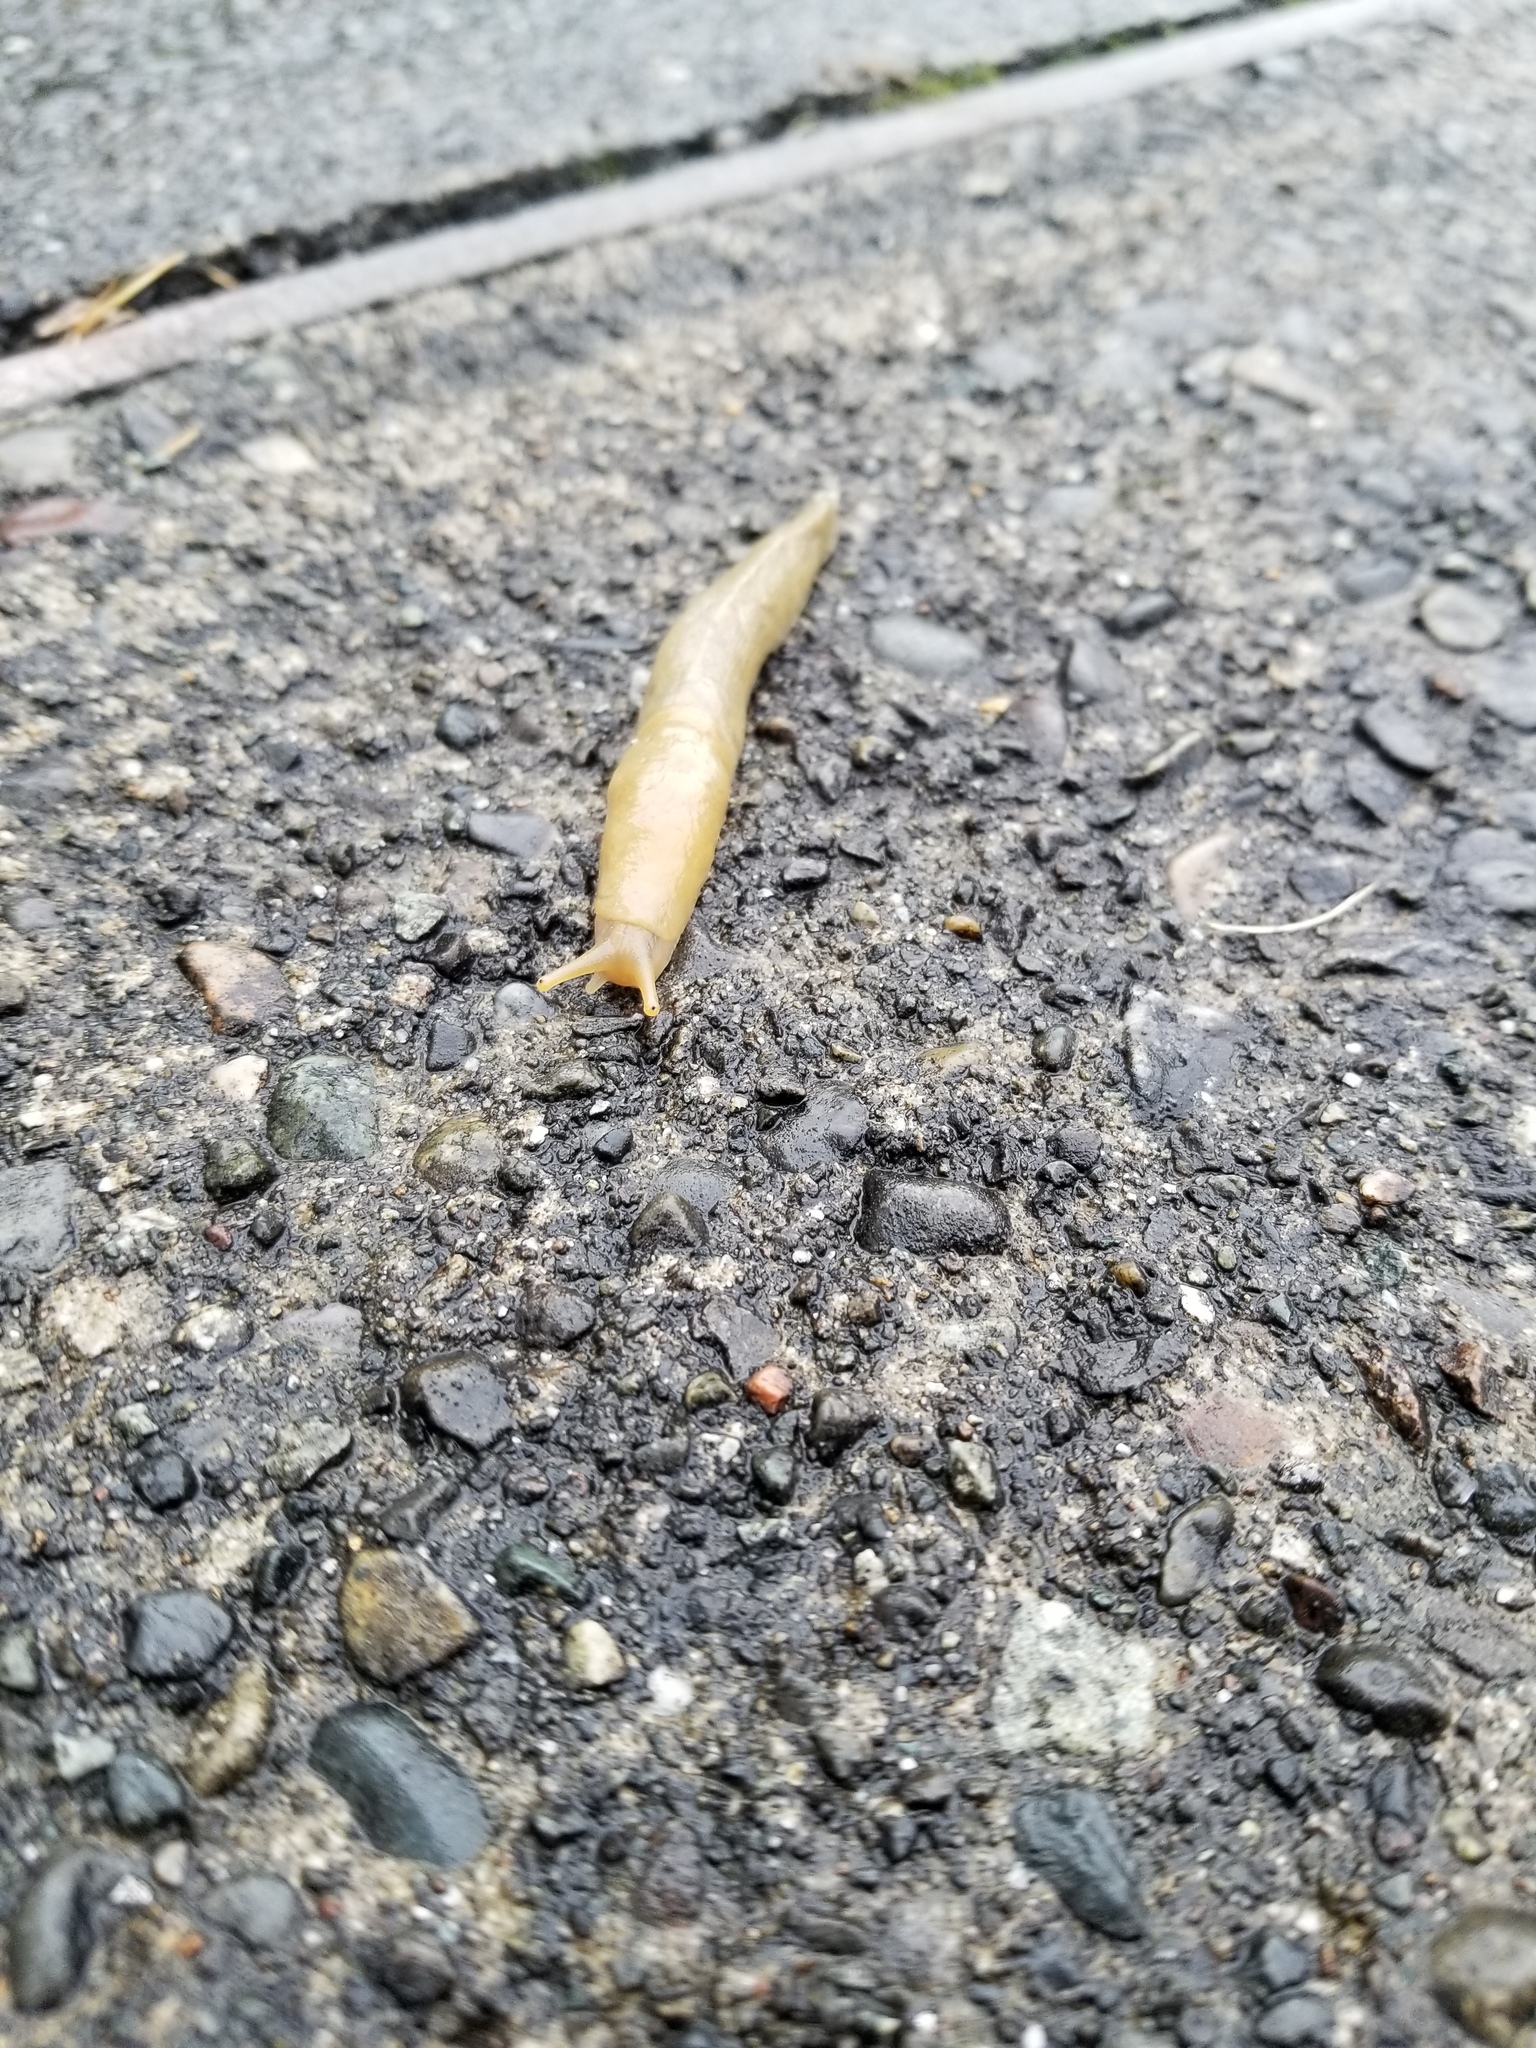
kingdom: Animalia
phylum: Mollusca
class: Gastropoda
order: Stylommatophora
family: Ariolimacidae
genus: Ariolimax
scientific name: Ariolimax columbianus
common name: Pacific banana slug
